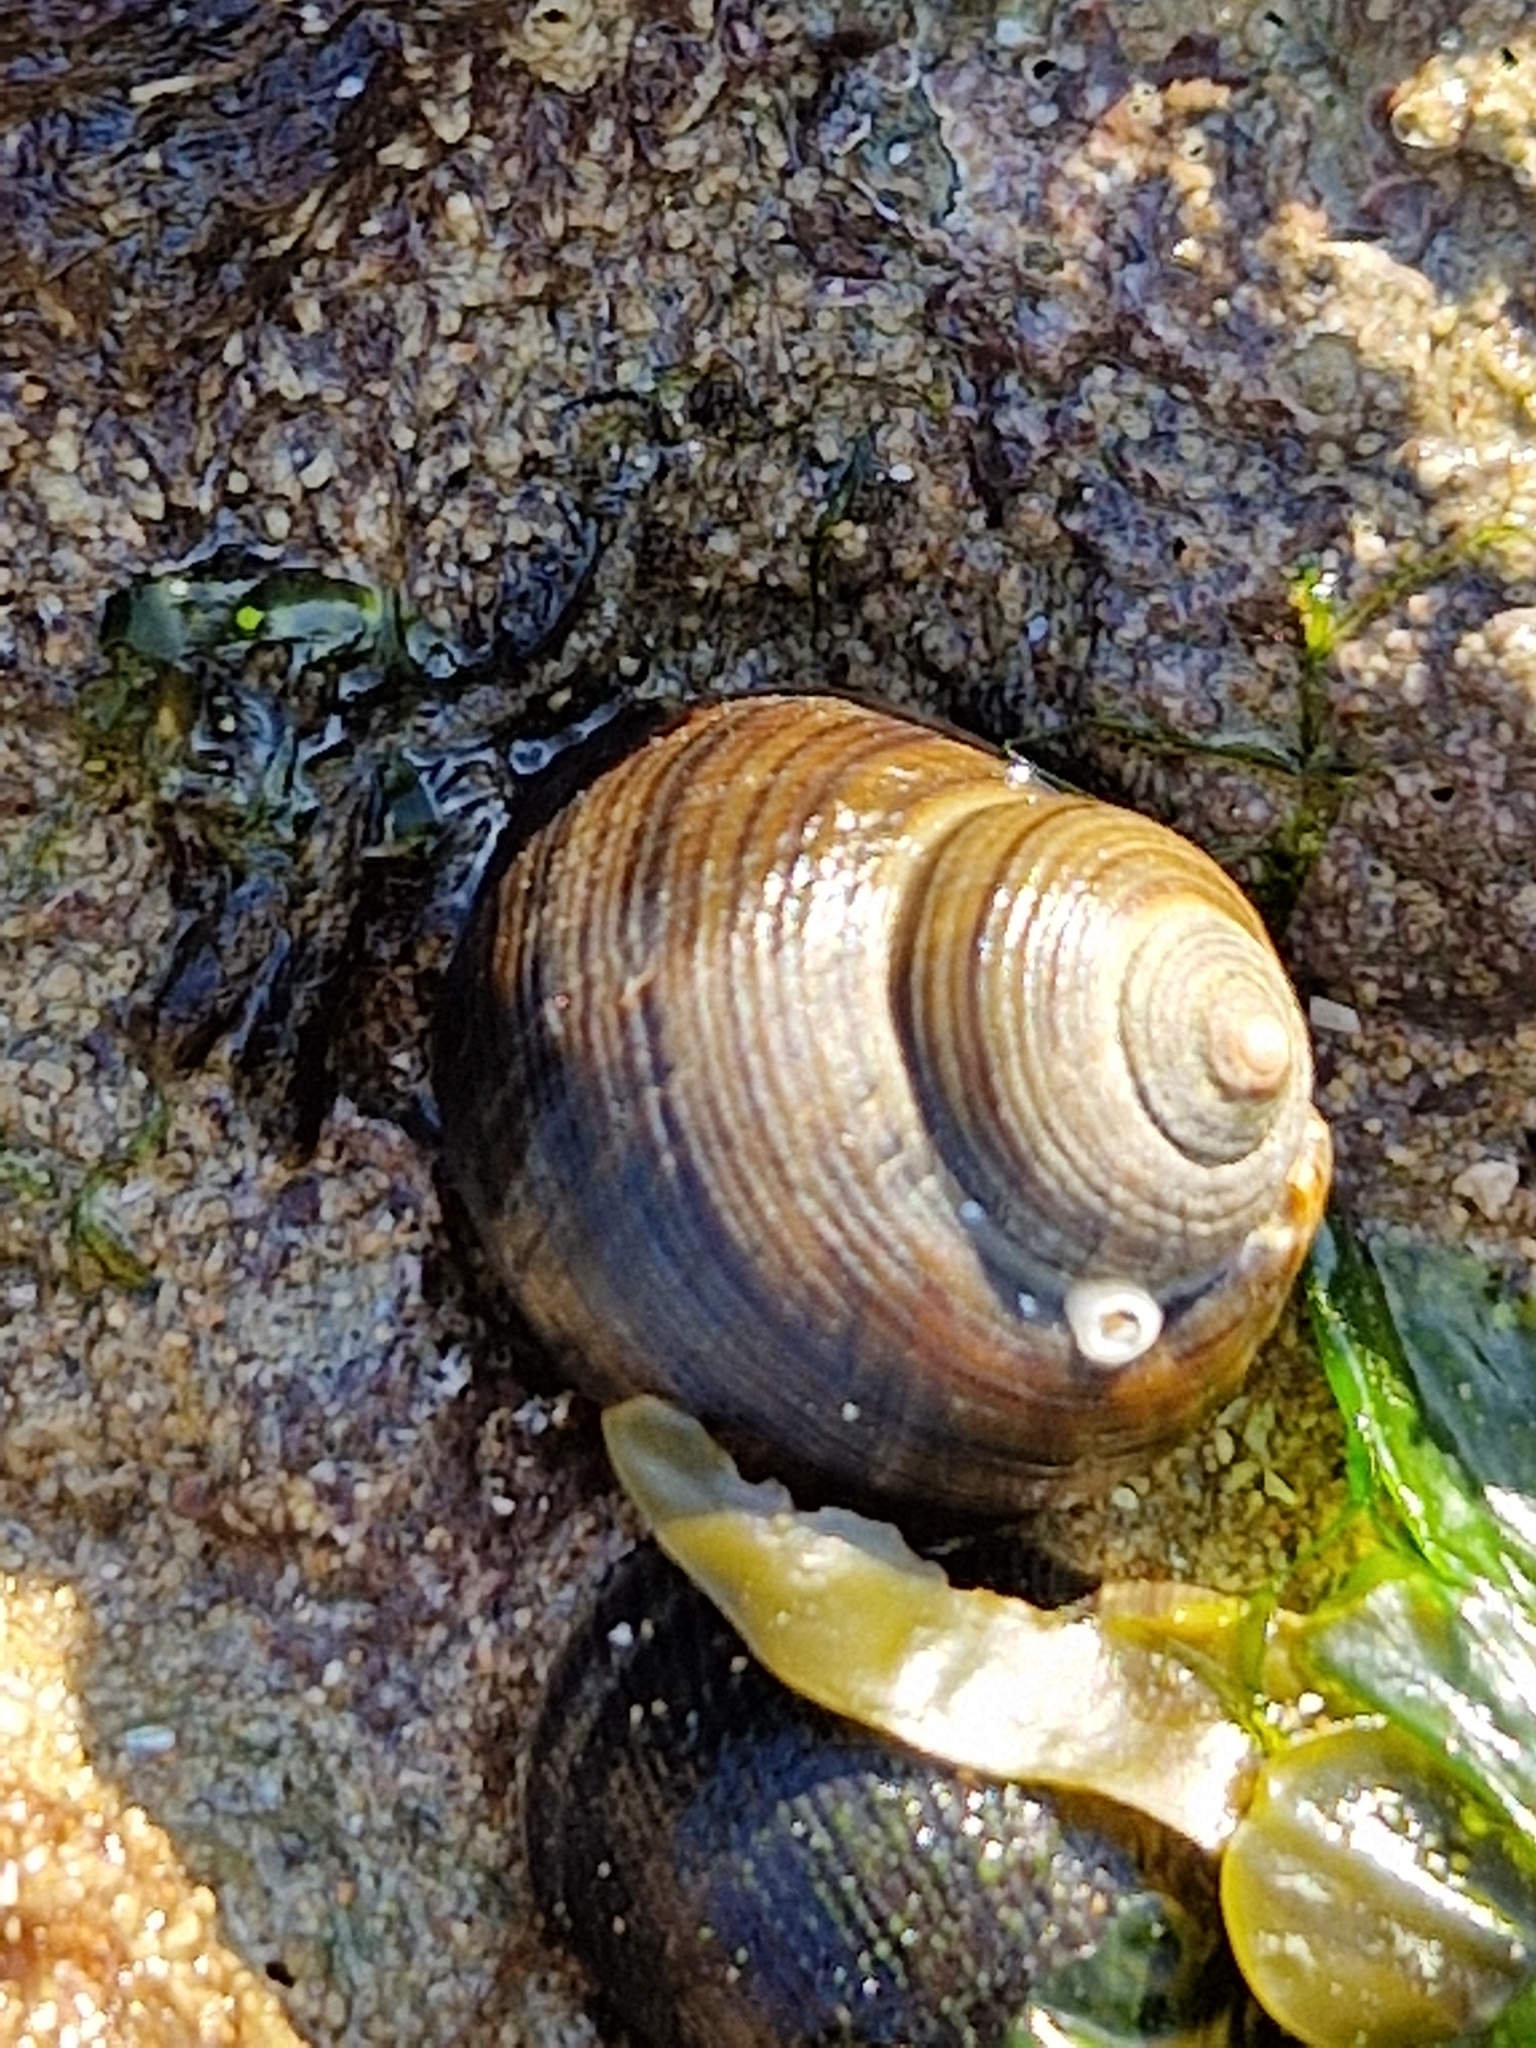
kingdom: Animalia
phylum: Mollusca
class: Gastropoda
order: Littorinimorpha
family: Littorinidae
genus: Littorina
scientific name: Littorina littorea
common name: Common periwinkle
